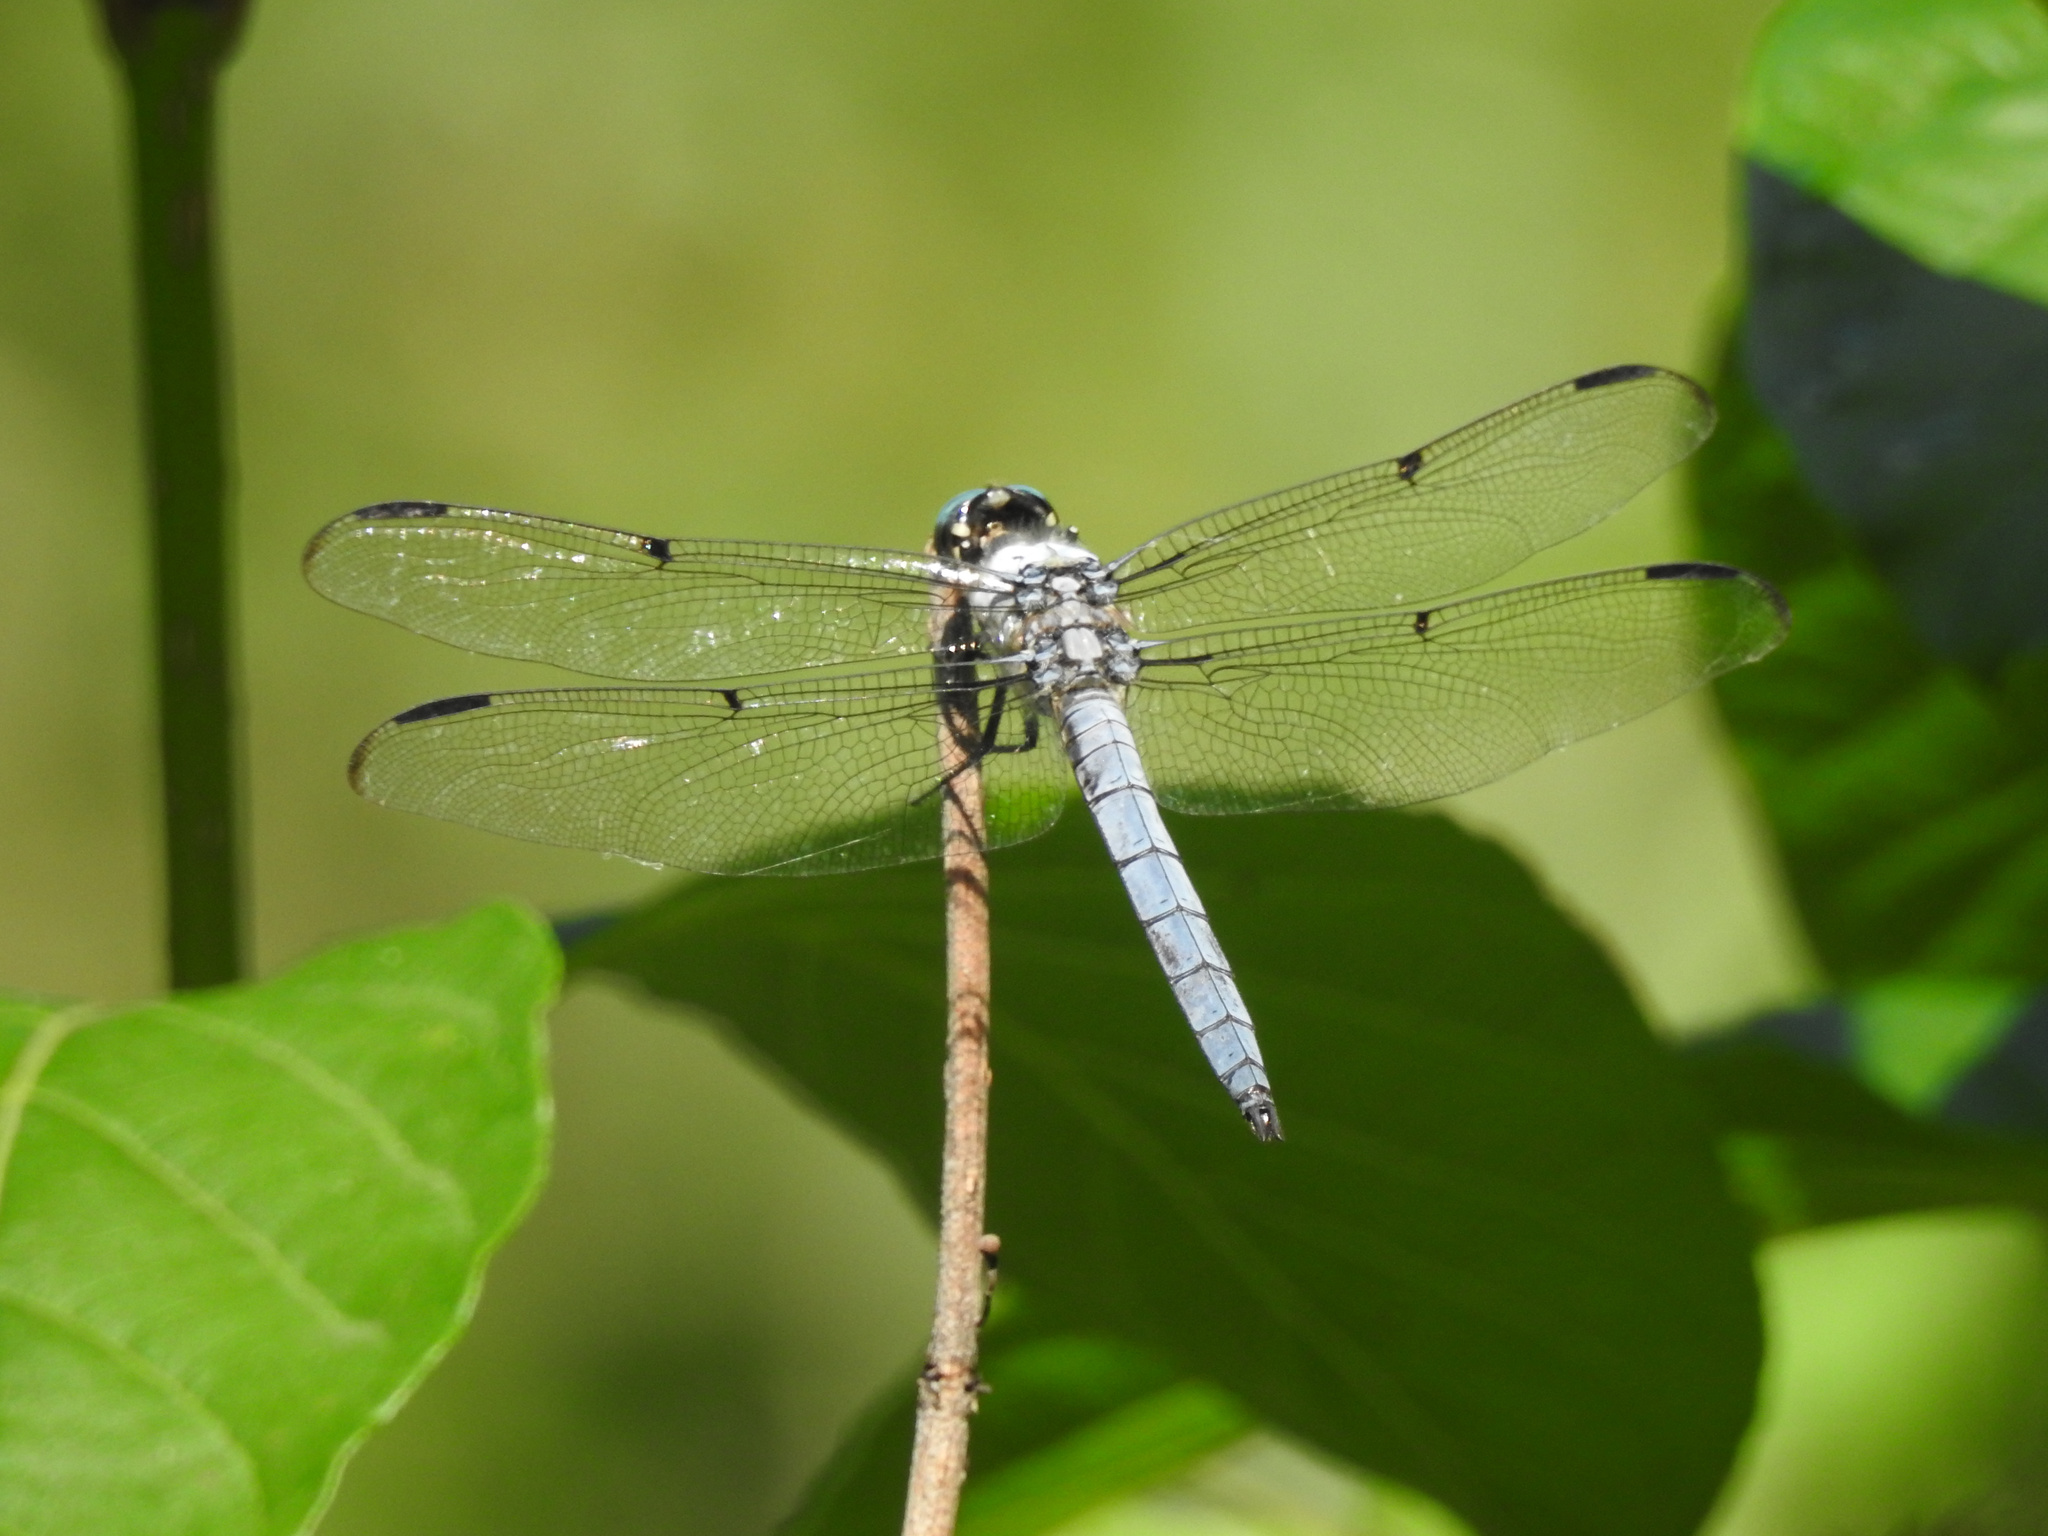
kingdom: Animalia
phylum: Arthropoda
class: Insecta
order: Odonata
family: Libellulidae
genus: Libellula
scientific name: Libellula vibrans
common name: Great blue skimmer
